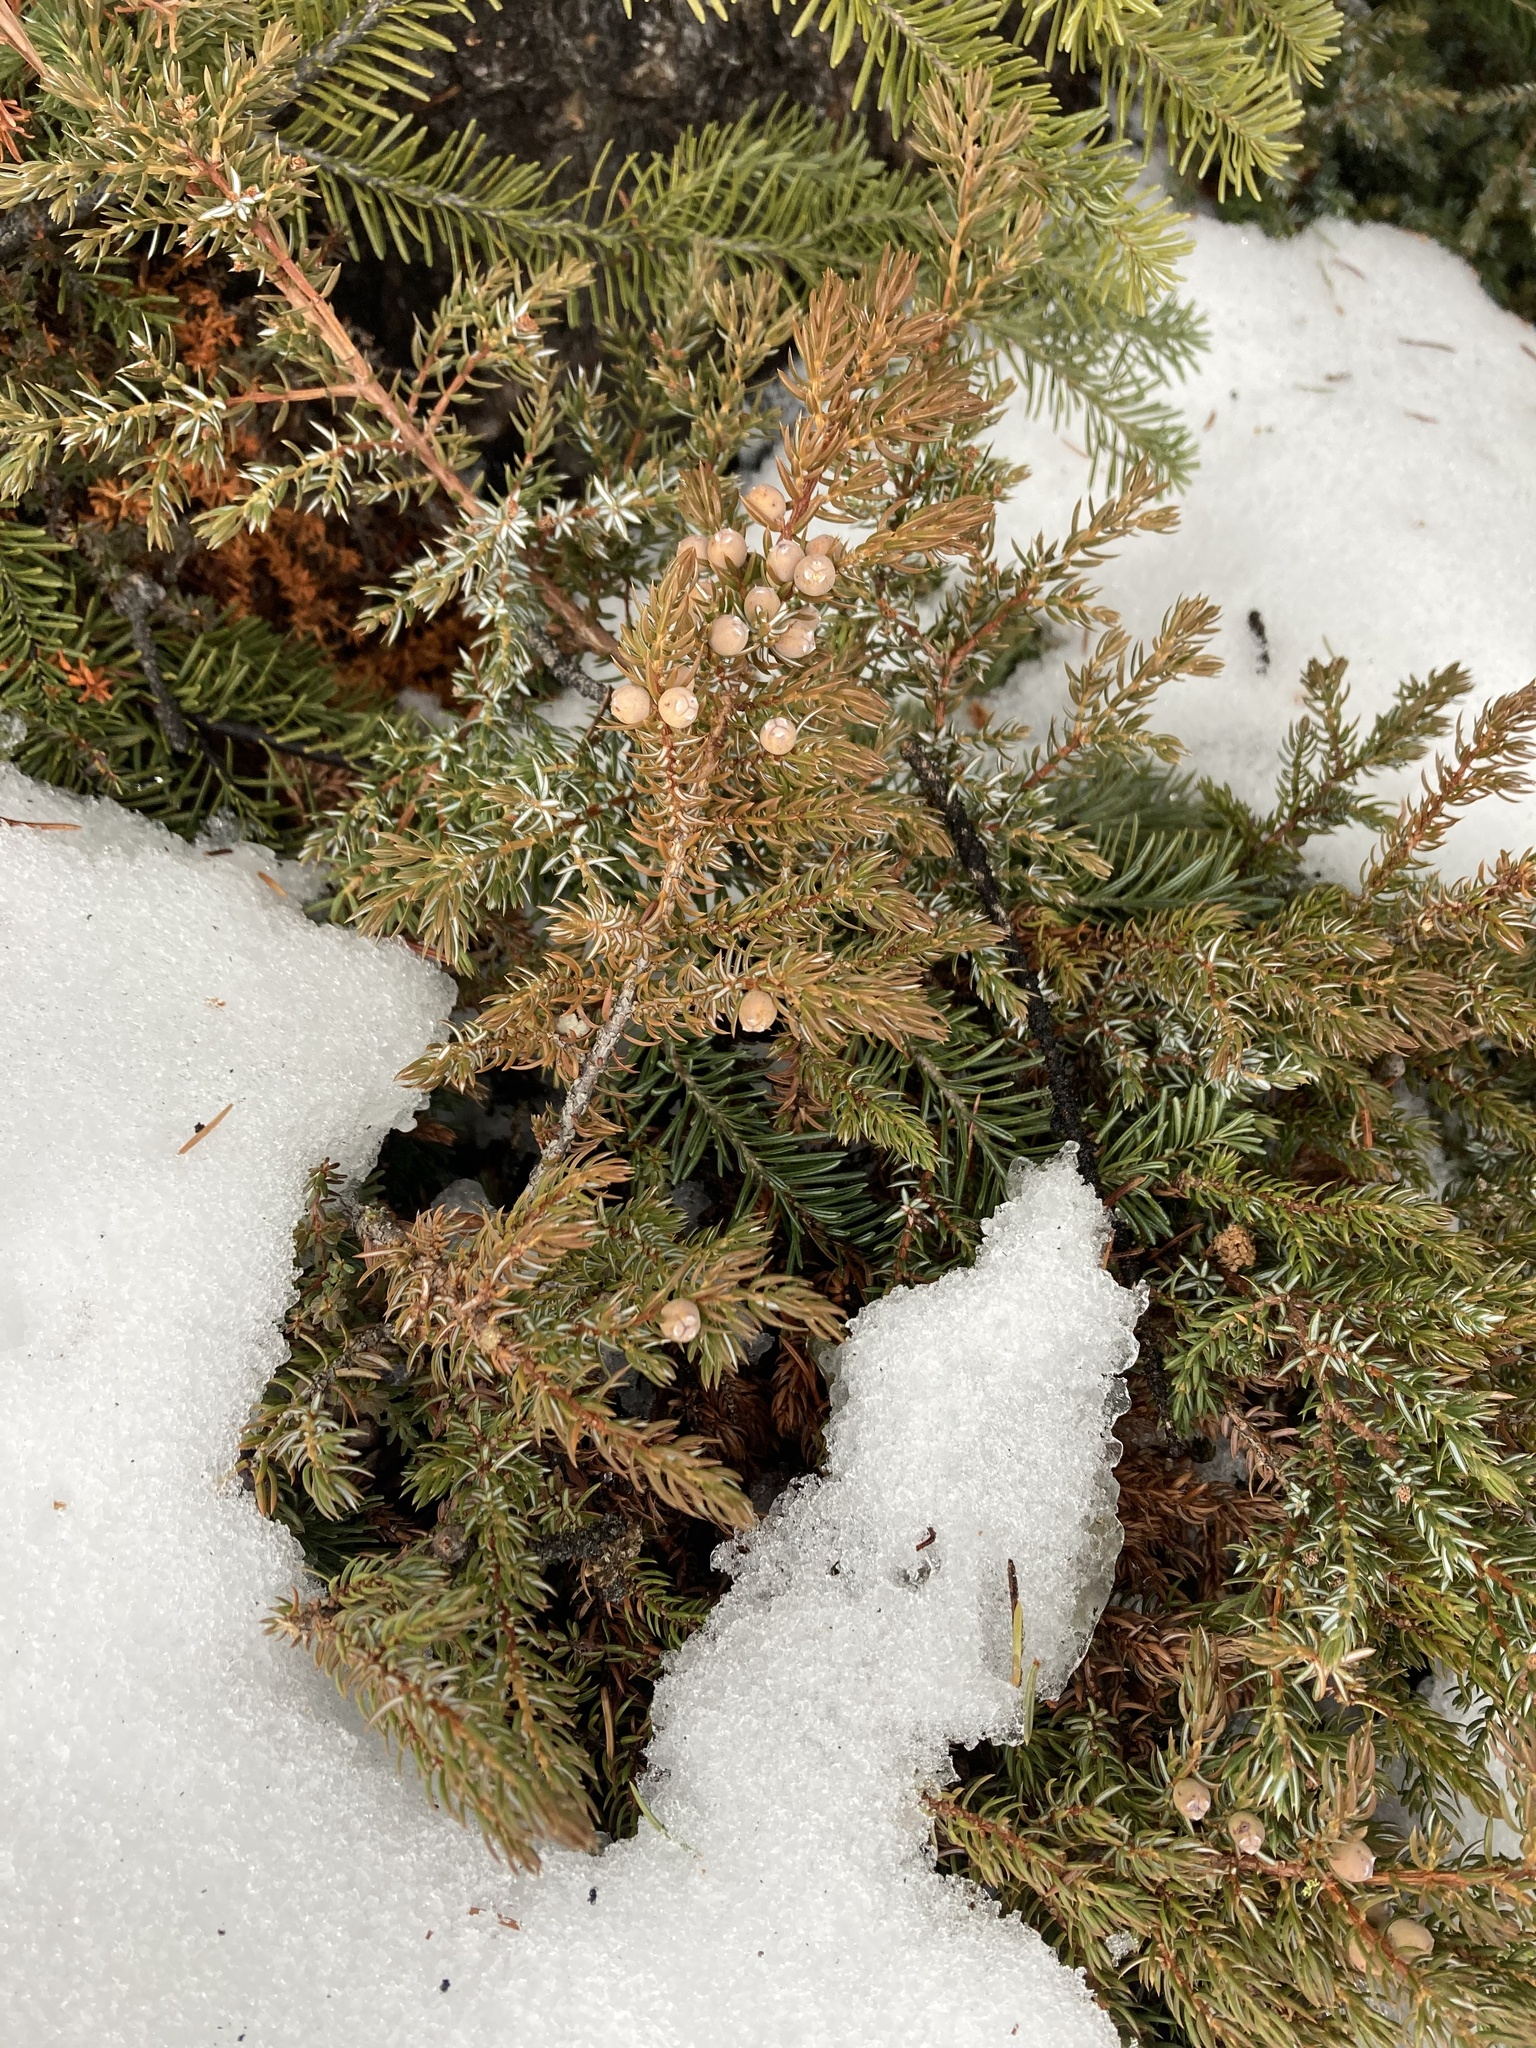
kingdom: Plantae
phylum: Tracheophyta
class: Pinopsida
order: Pinales
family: Cupressaceae
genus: Juniperus
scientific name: Juniperus communis
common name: Common juniper
